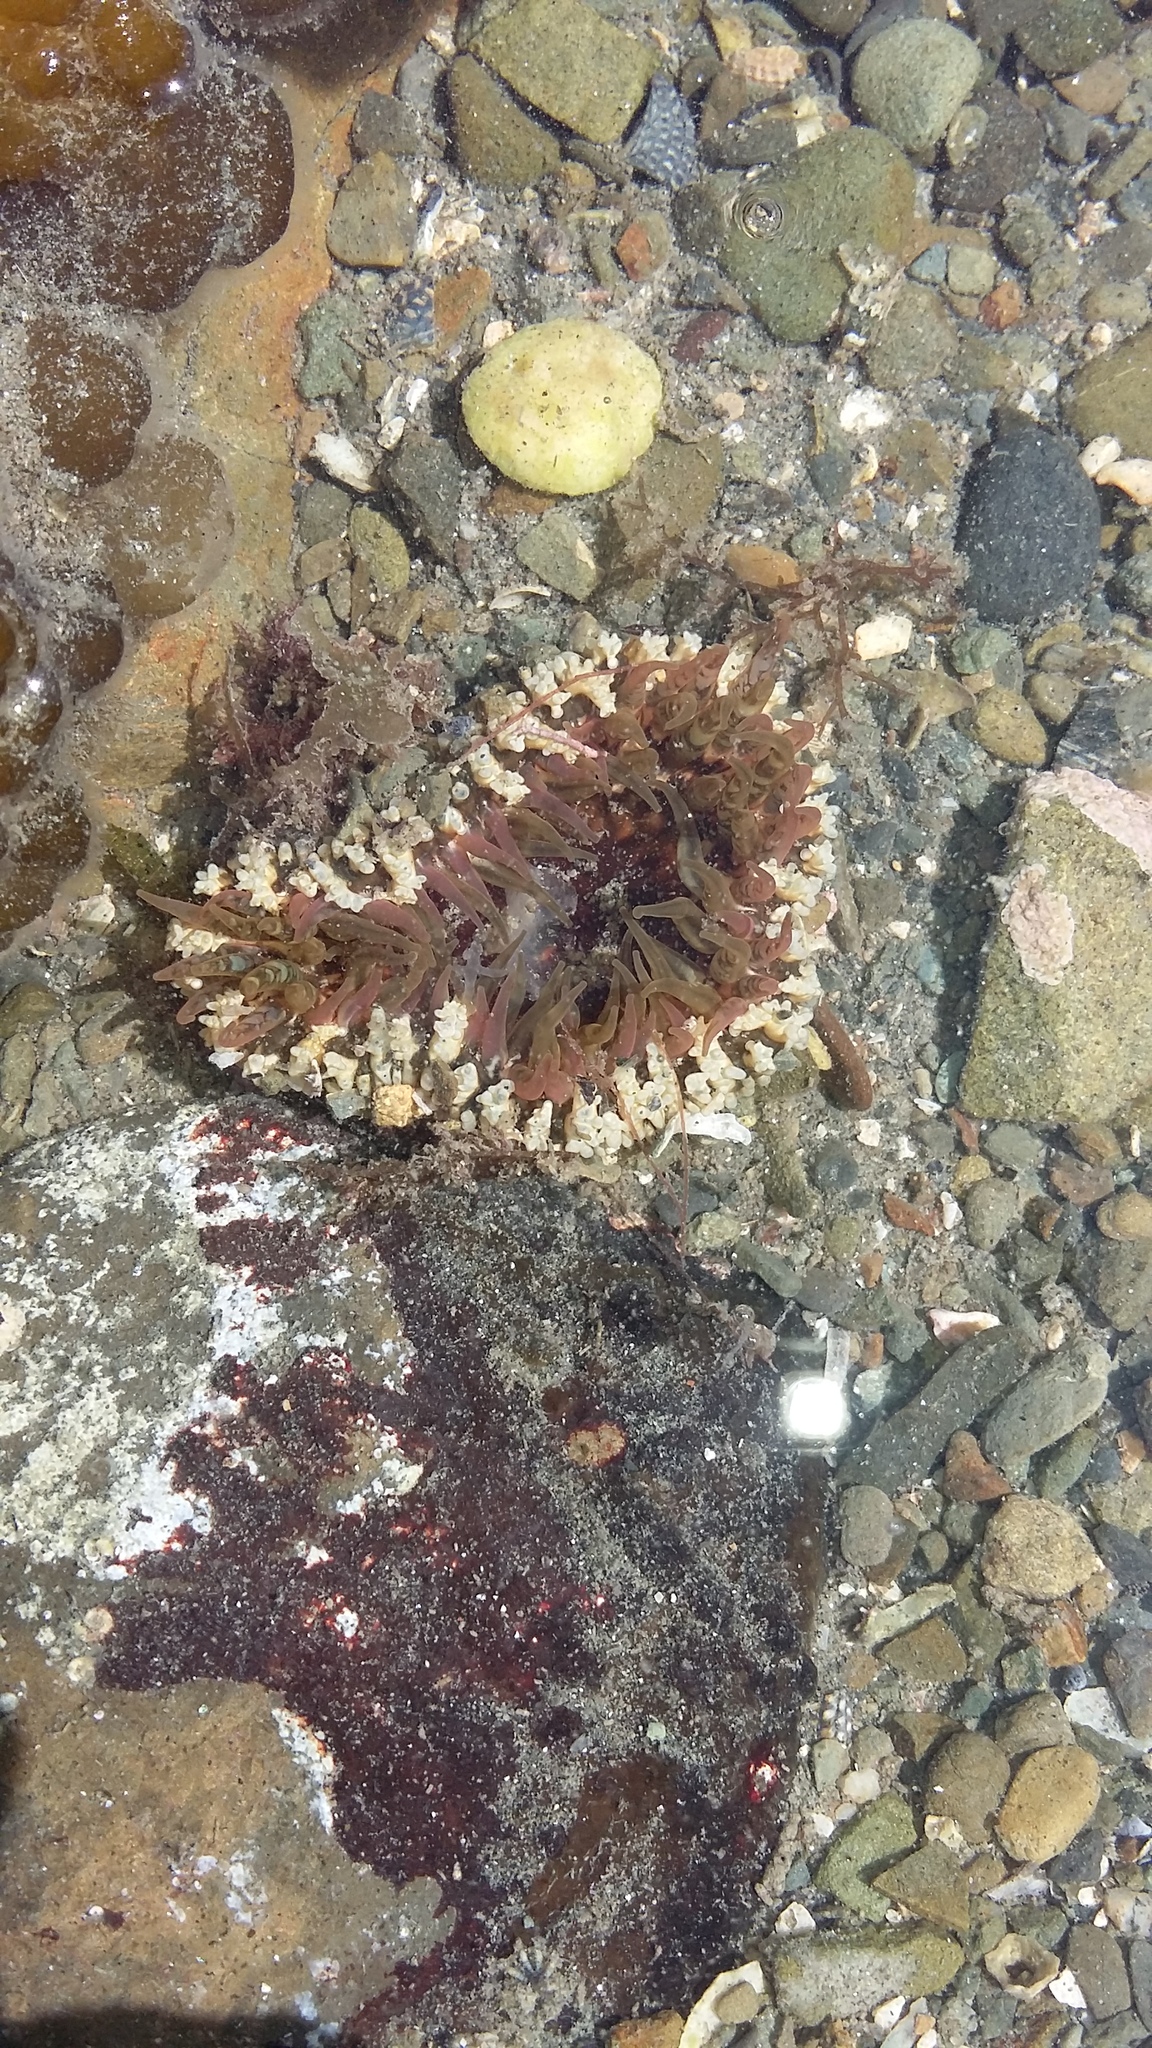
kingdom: Animalia
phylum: Cnidaria
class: Anthozoa
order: Actiniaria
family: Actiniidae
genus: Oulactis
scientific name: Oulactis muscosa
